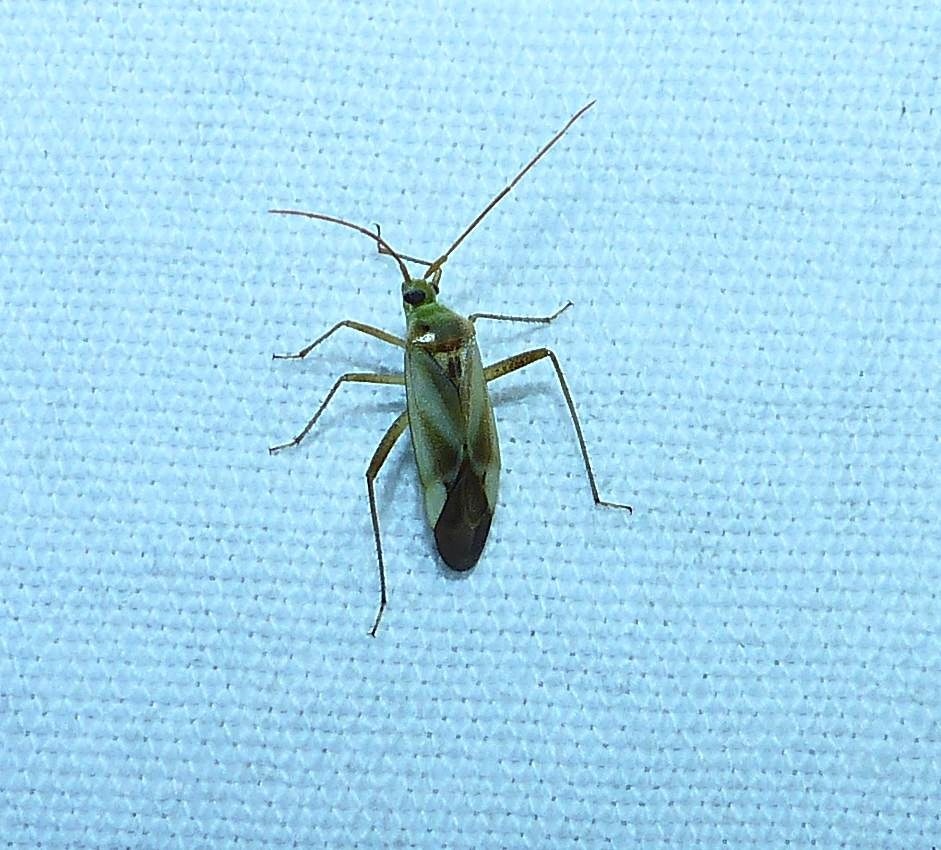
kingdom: Animalia
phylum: Arthropoda
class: Insecta
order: Hemiptera
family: Miridae
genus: Adelphocoris
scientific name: Adelphocoris lineolatus
